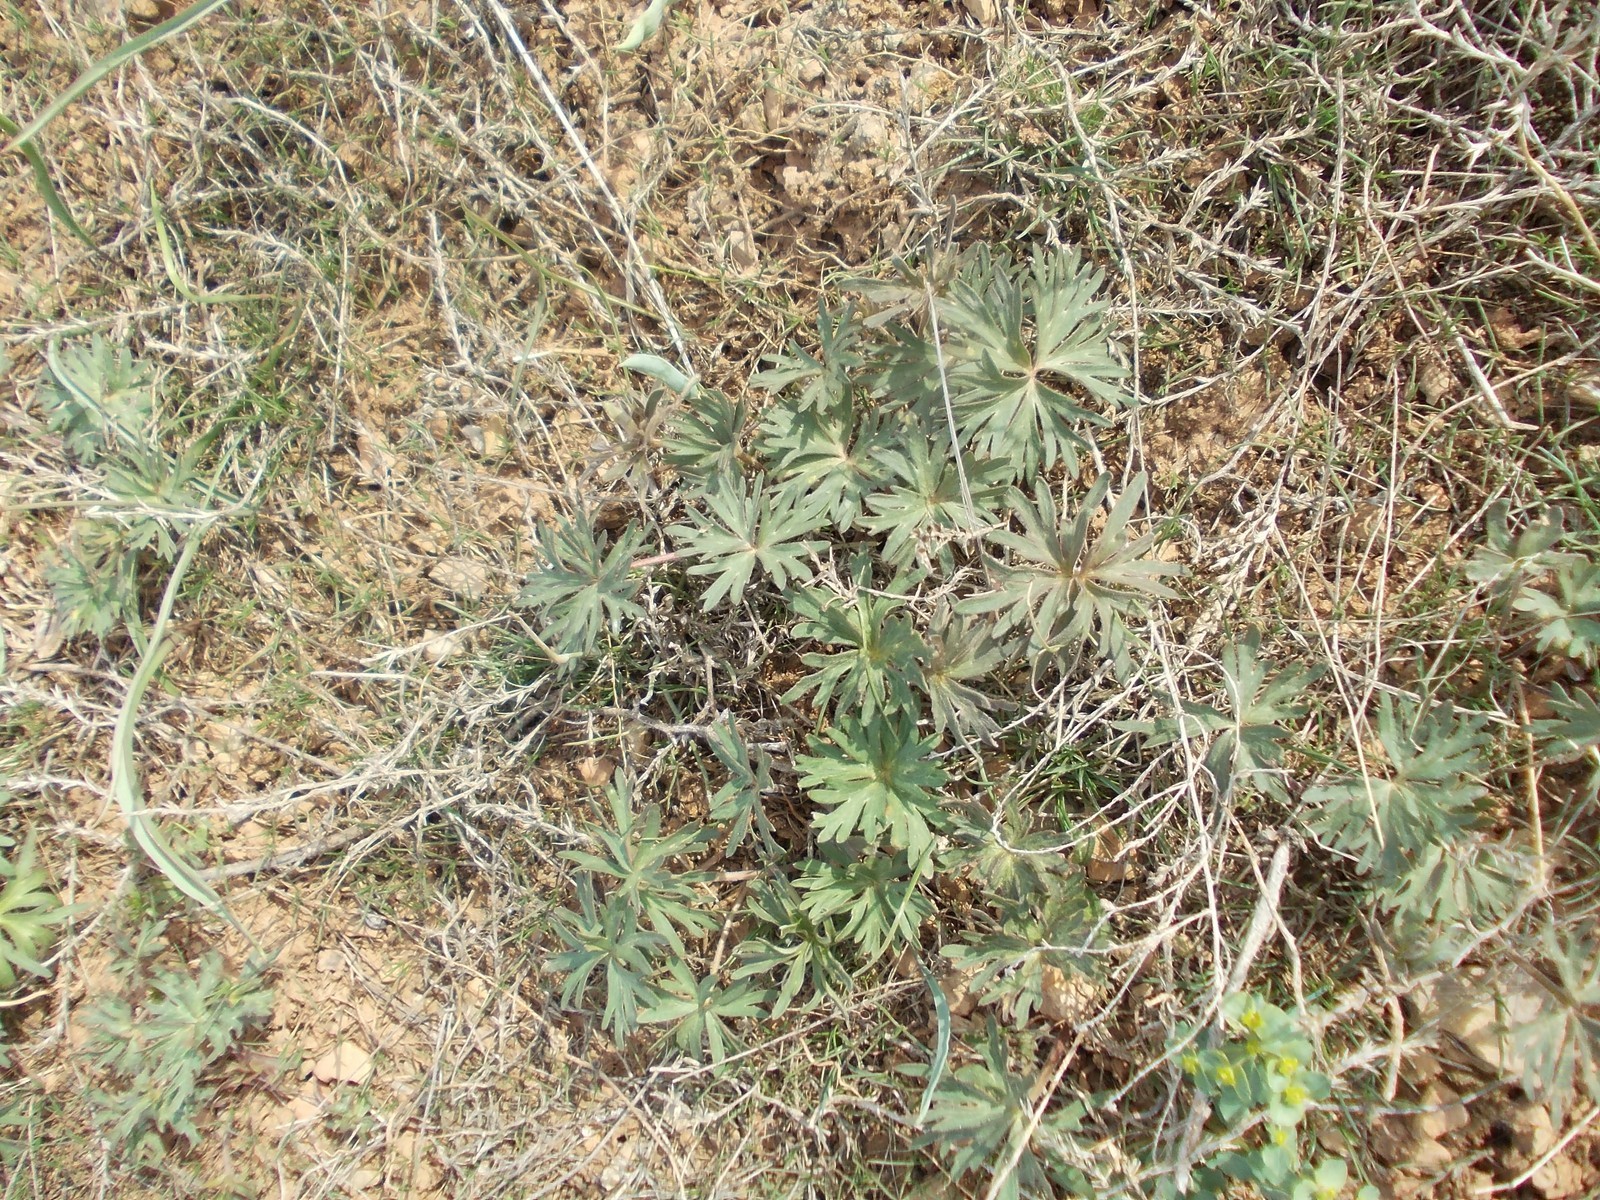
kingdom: Plantae
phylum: Tracheophyta
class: Magnoliopsida
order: Ranunculales
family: Ranunculaceae
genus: Delphinium
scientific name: Delphinium puniceum
